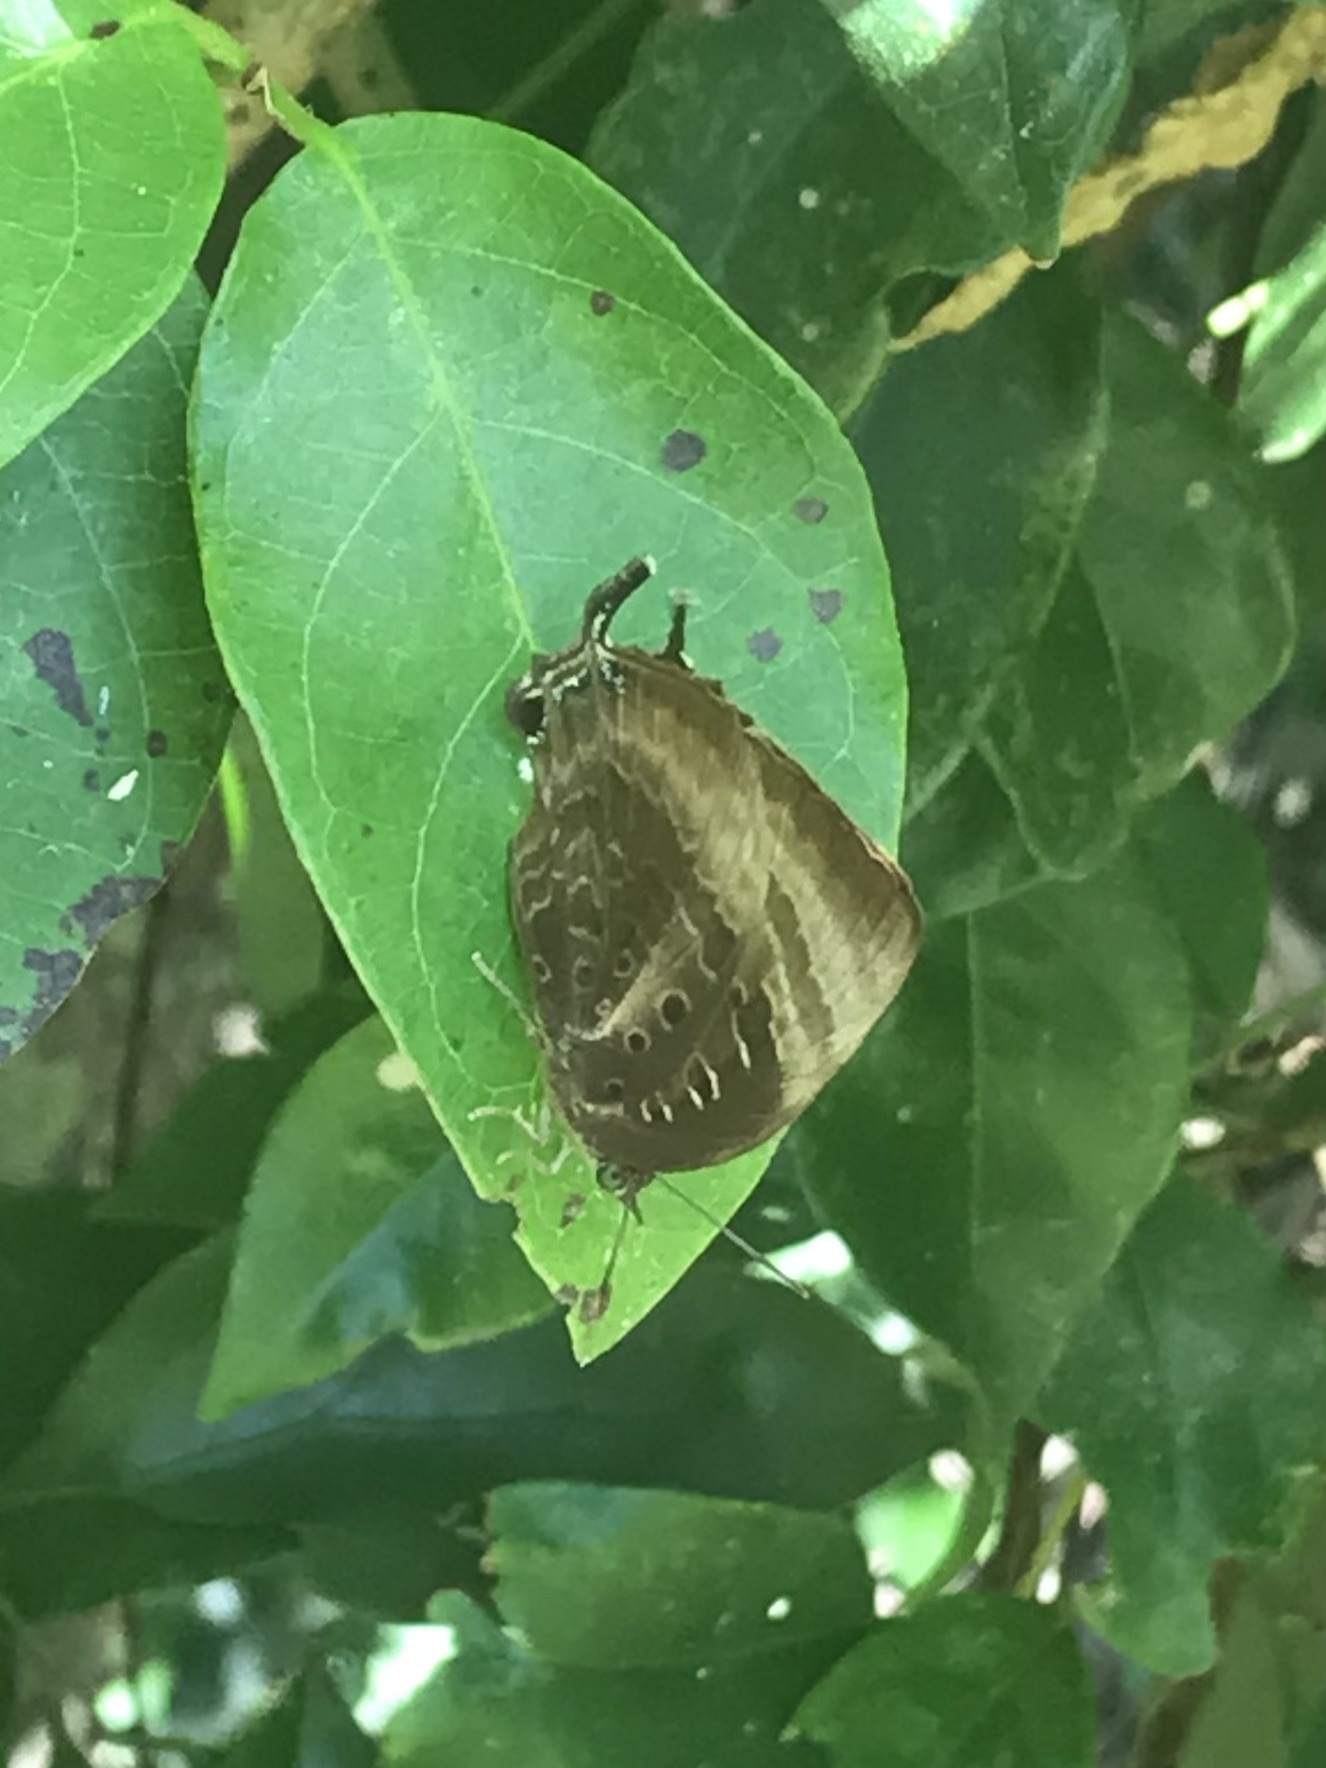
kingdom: Animalia
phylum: Arthropoda
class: Insecta
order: Lepidoptera
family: Lycaenidae
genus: Arhopala
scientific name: Arhopala micale
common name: Shining oak-blue
